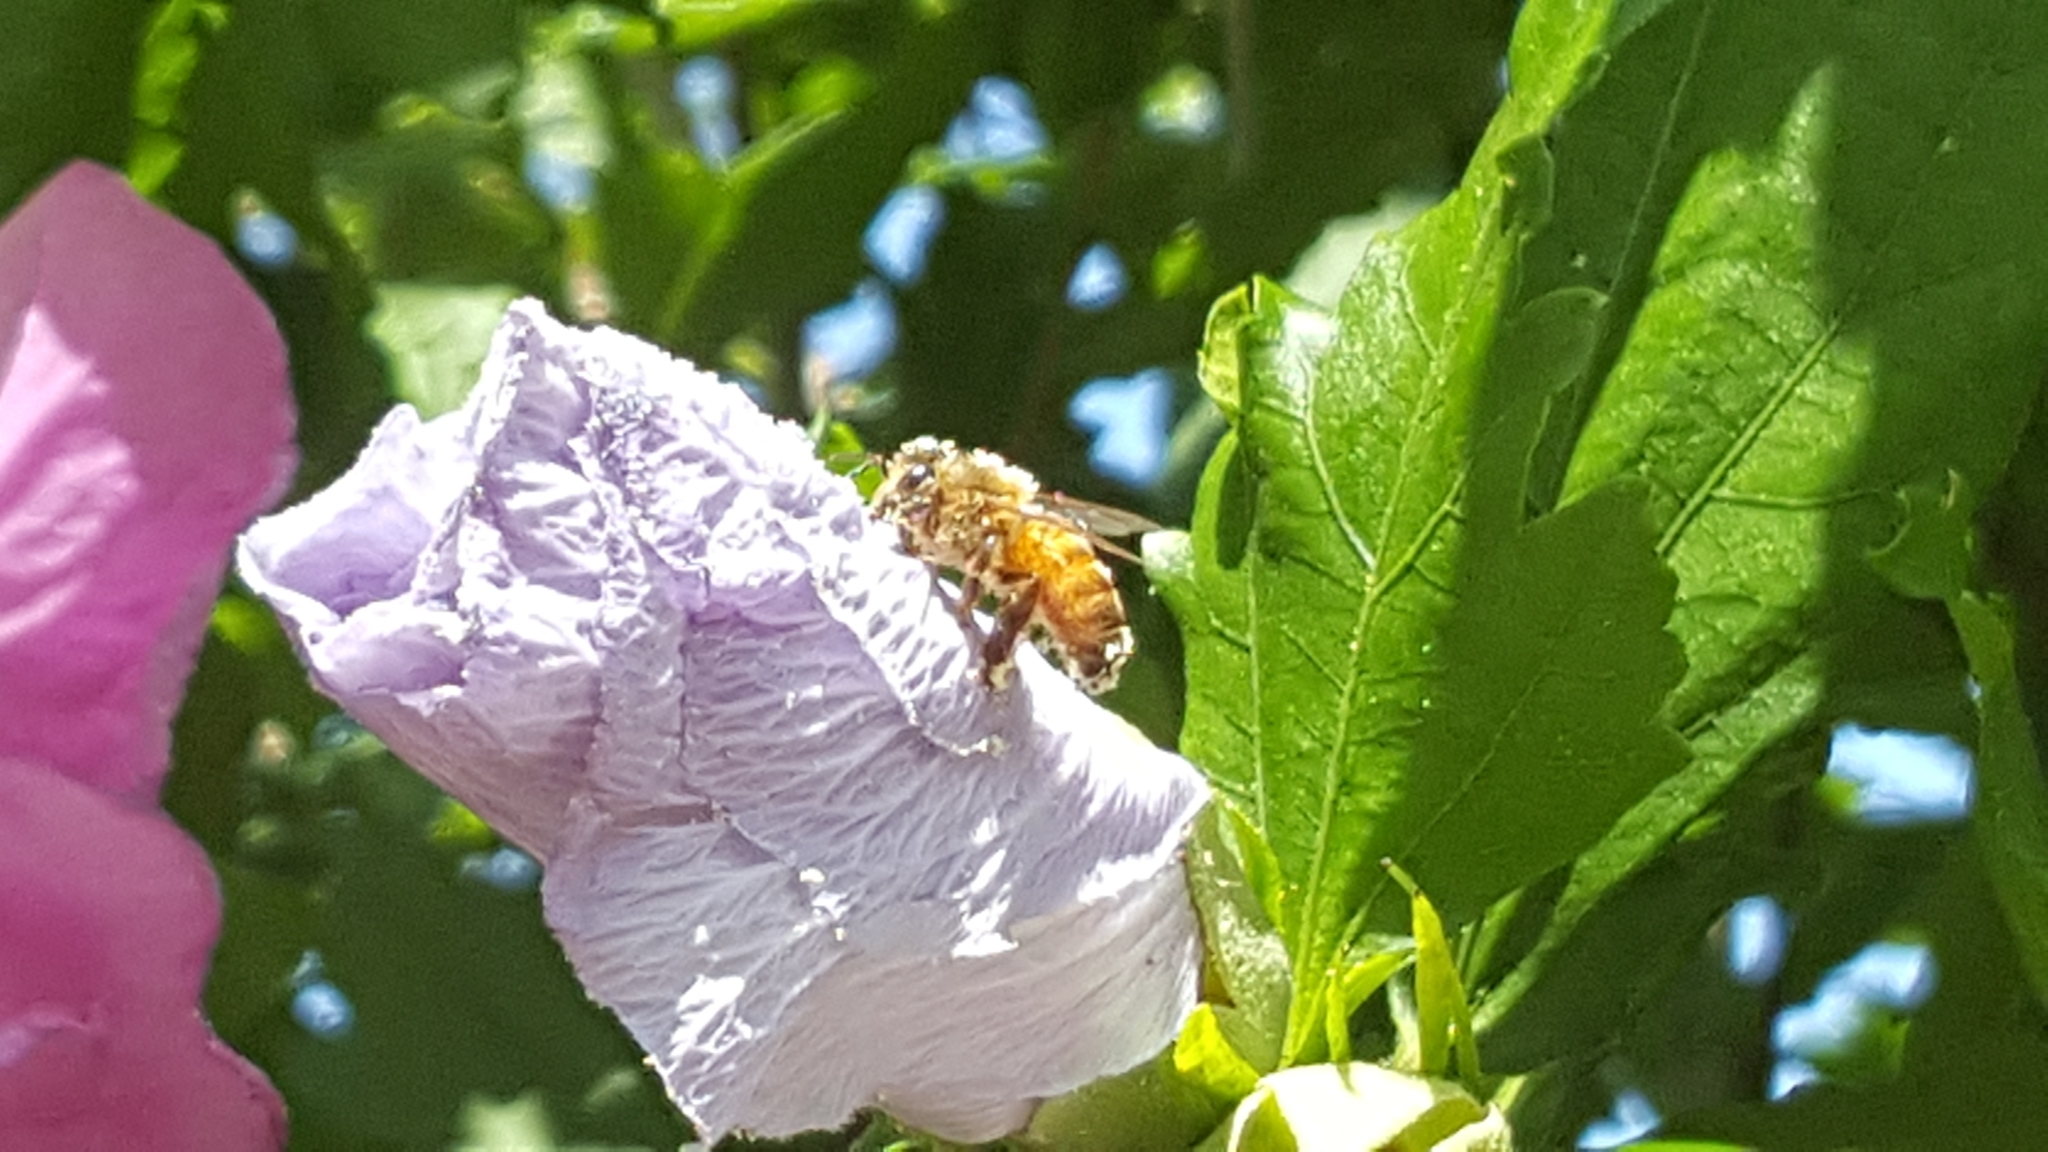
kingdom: Animalia
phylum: Arthropoda
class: Insecta
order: Hymenoptera
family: Apidae
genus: Apis
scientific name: Apis mellifera
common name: Honey bee
